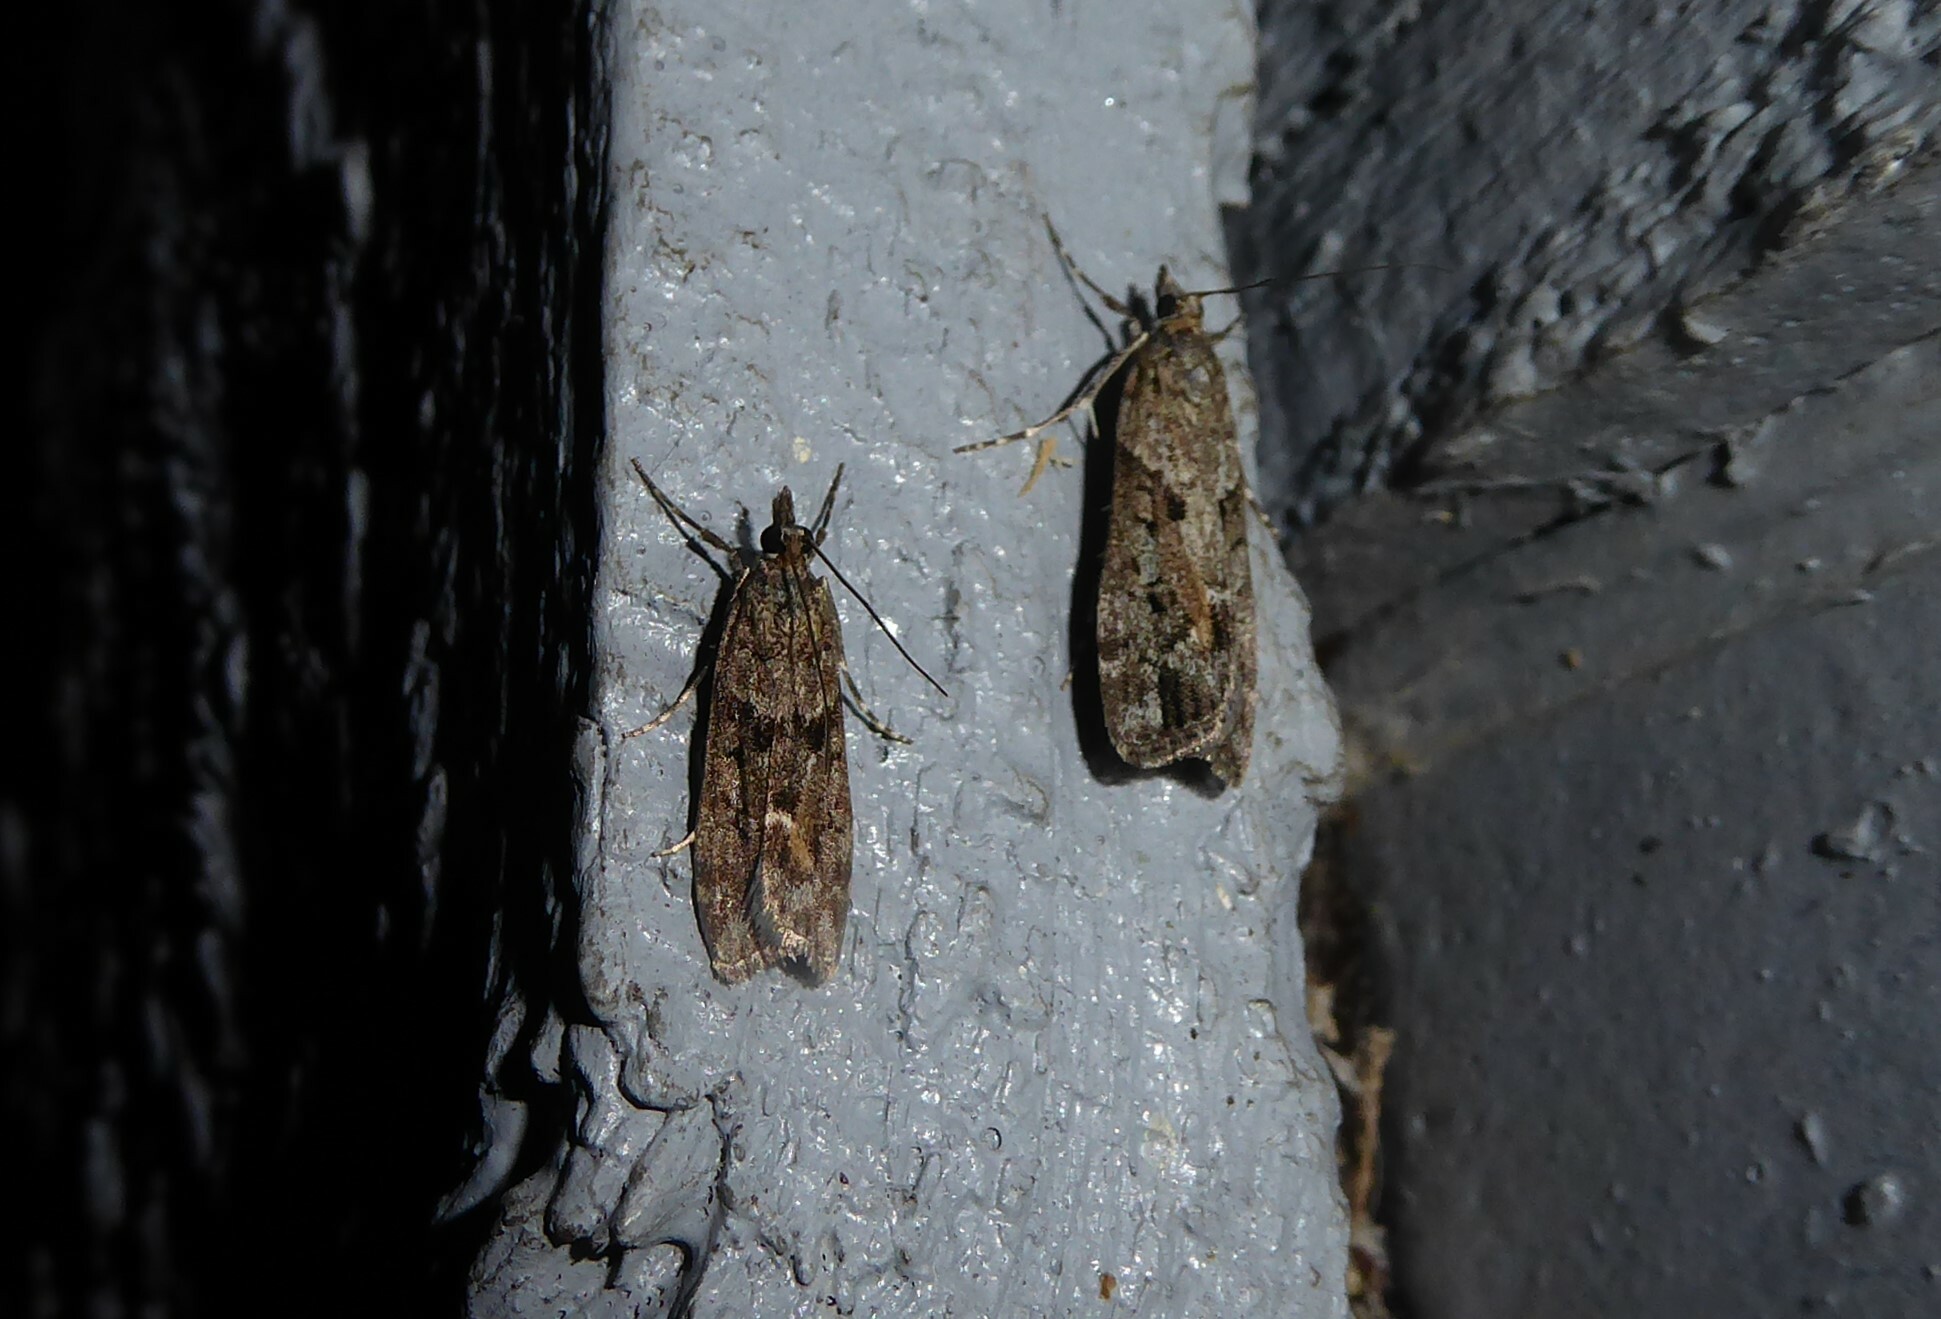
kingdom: Animalia
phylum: Arthropoda
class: Insecta
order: Lepidoptera
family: Crambidae
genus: Eudonia
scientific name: Eudonia submarginalis
